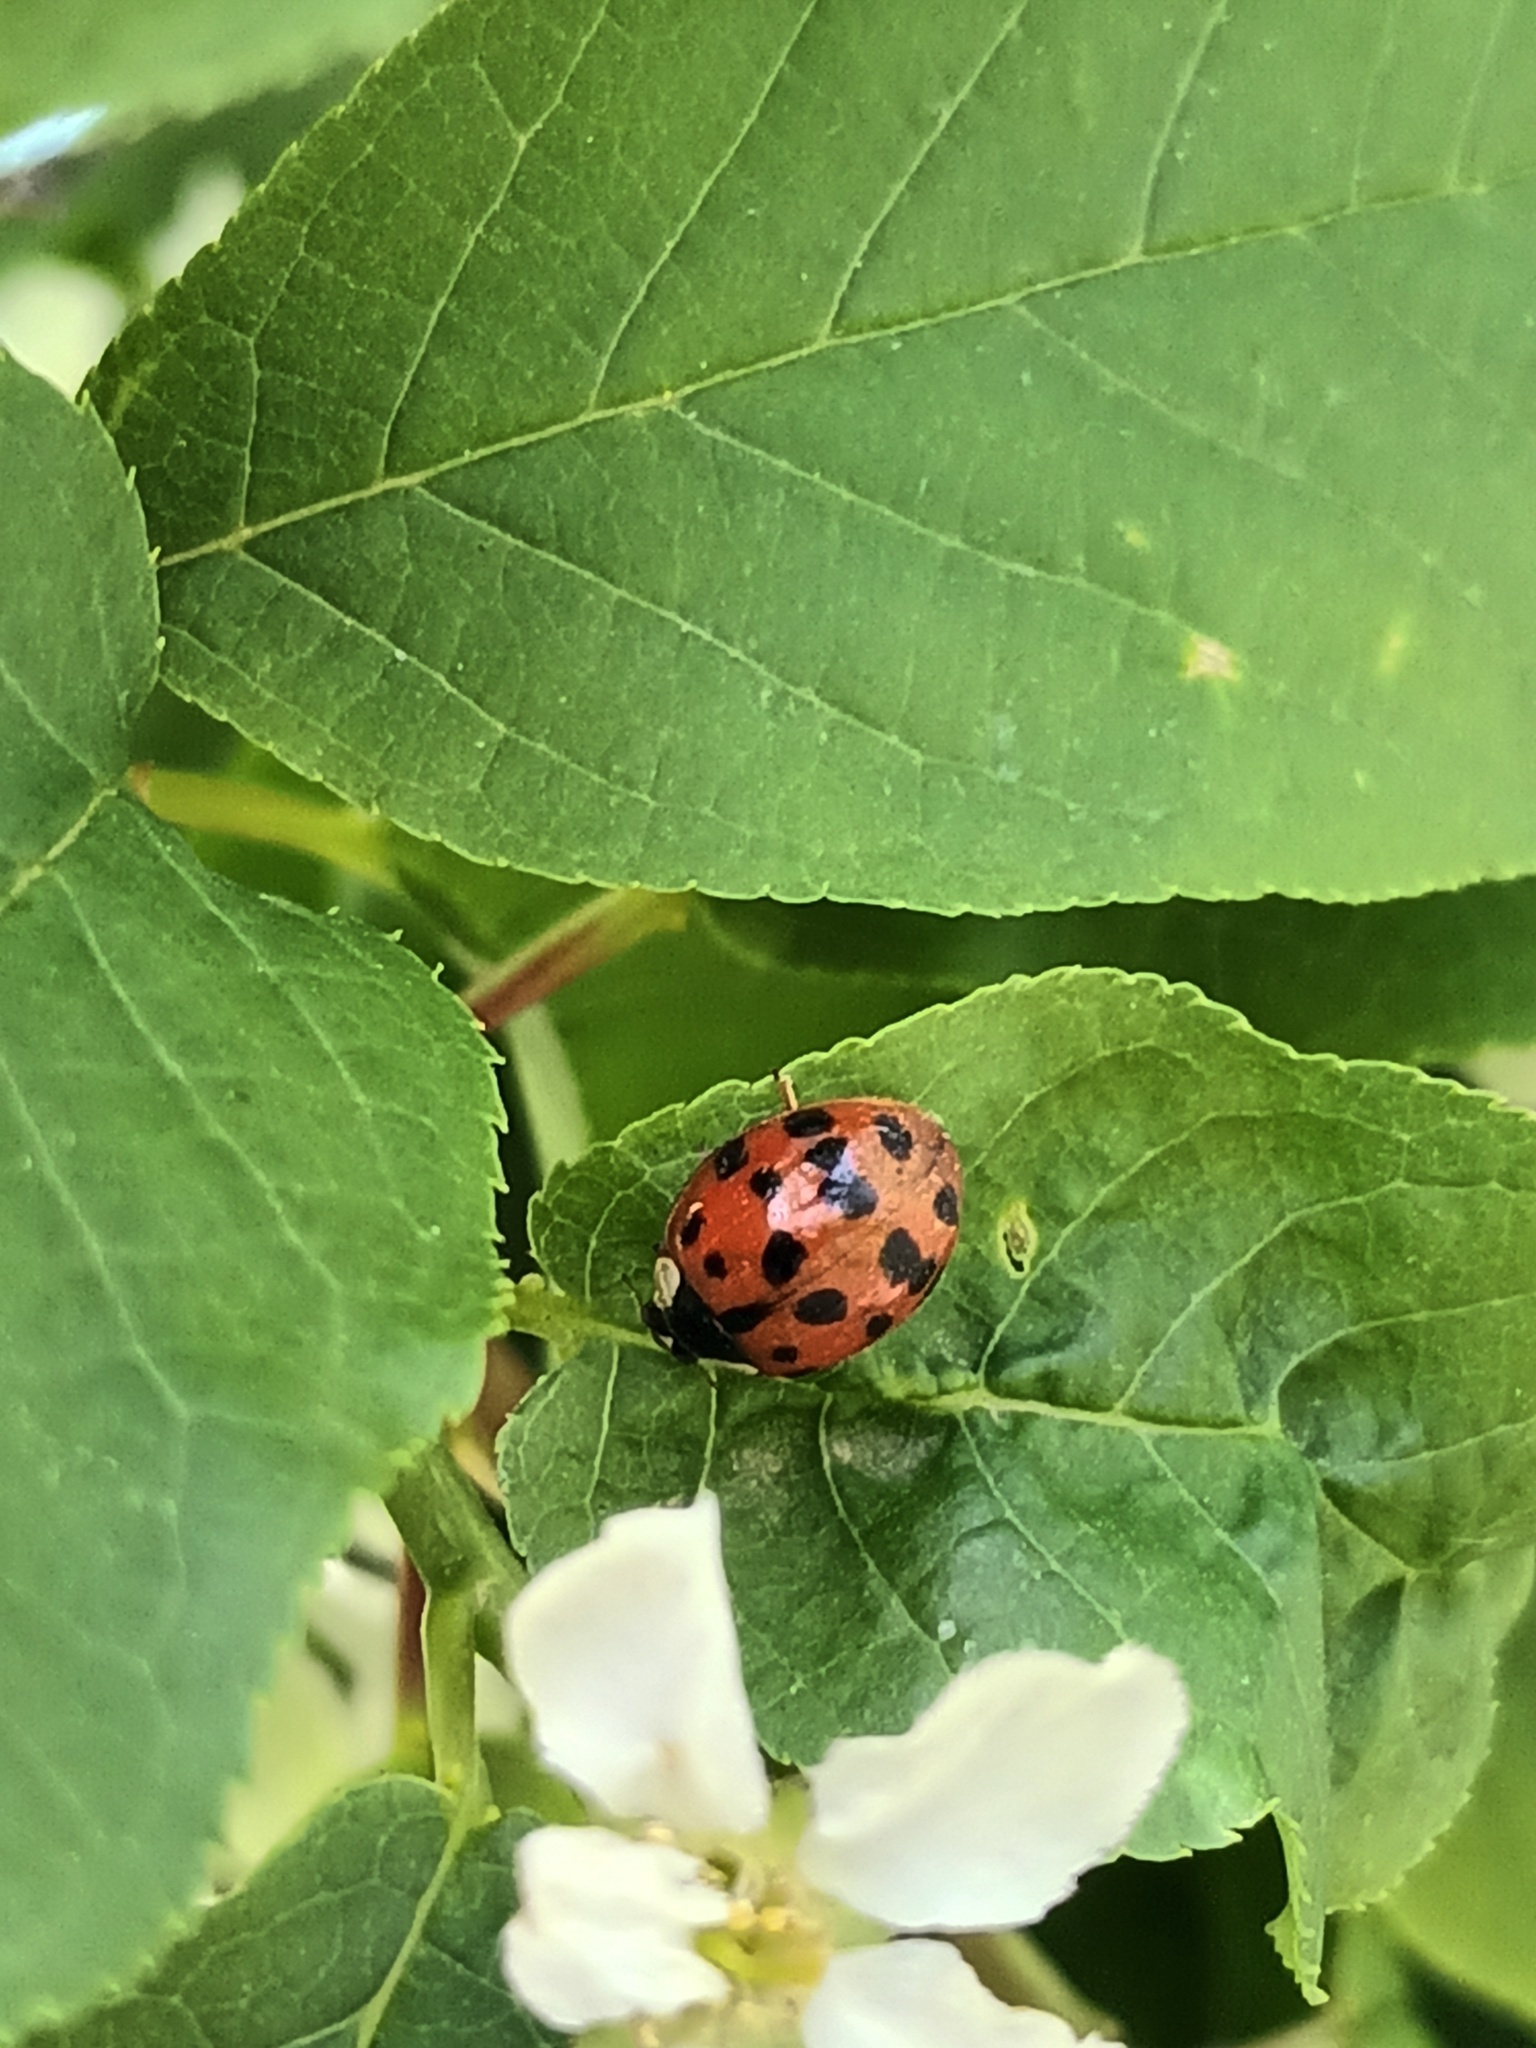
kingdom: Animalia
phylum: Arthropoda
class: Insecta
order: Coleoptera
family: Coccinellidae
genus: Harmonia
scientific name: Harmonia axyridis
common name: Harlequin ladybird
